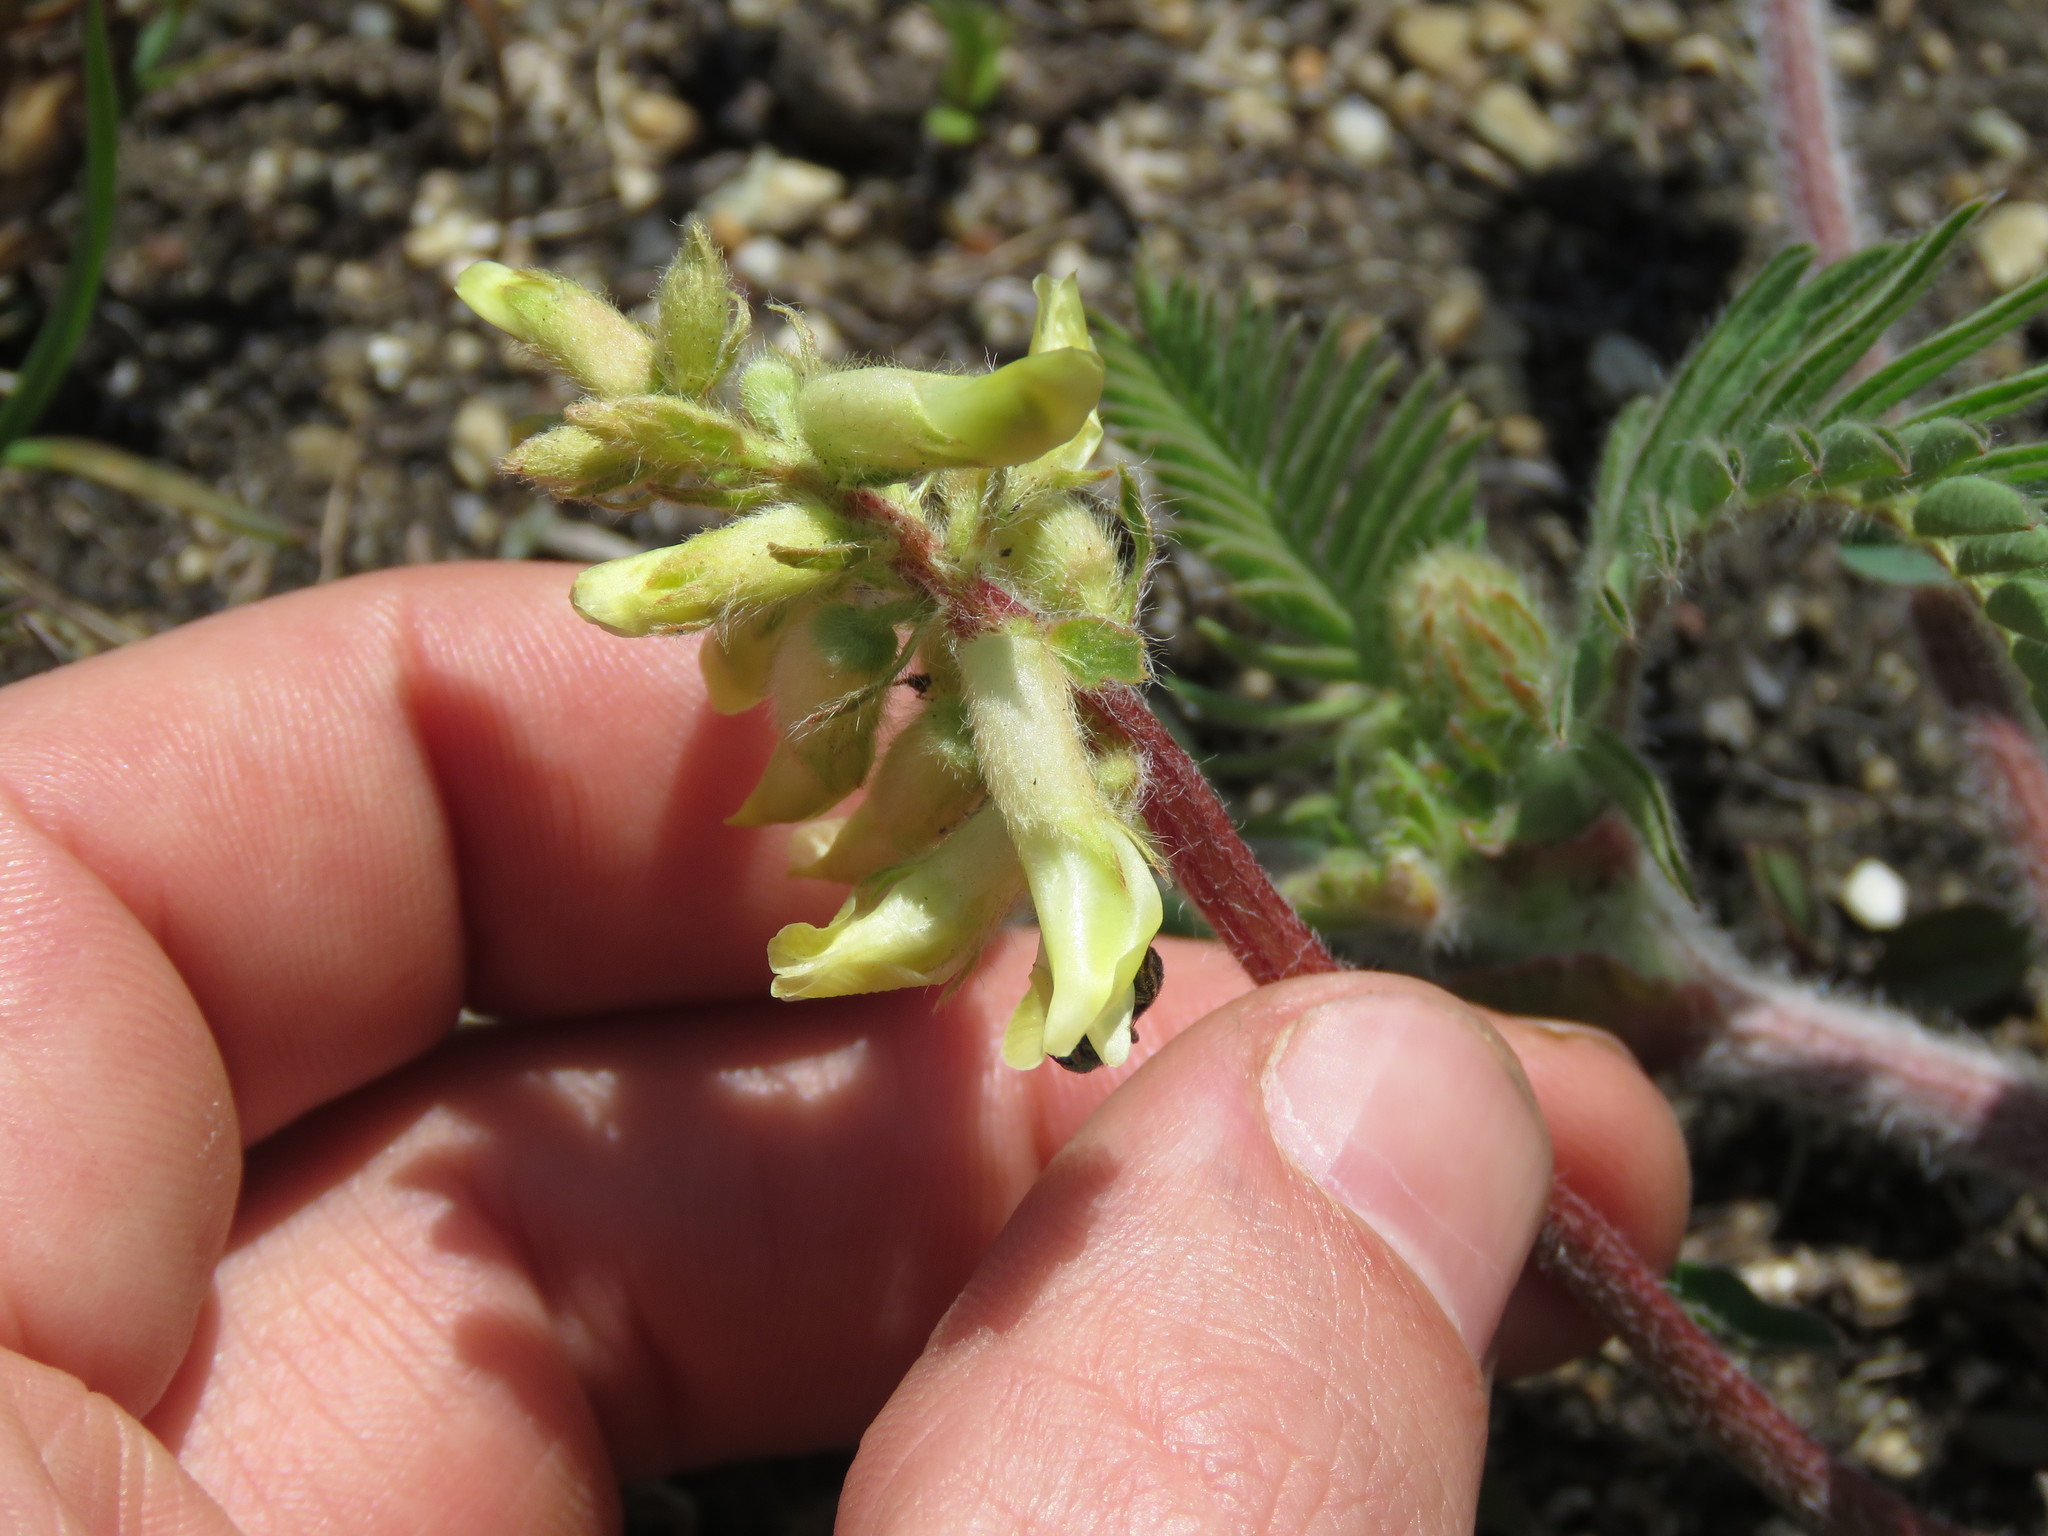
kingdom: Plantae
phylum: Tracheophyta
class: Magnoliopsida
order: Fabales
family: Fabaceae
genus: Astragalus
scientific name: Astragalus tennesseensis
